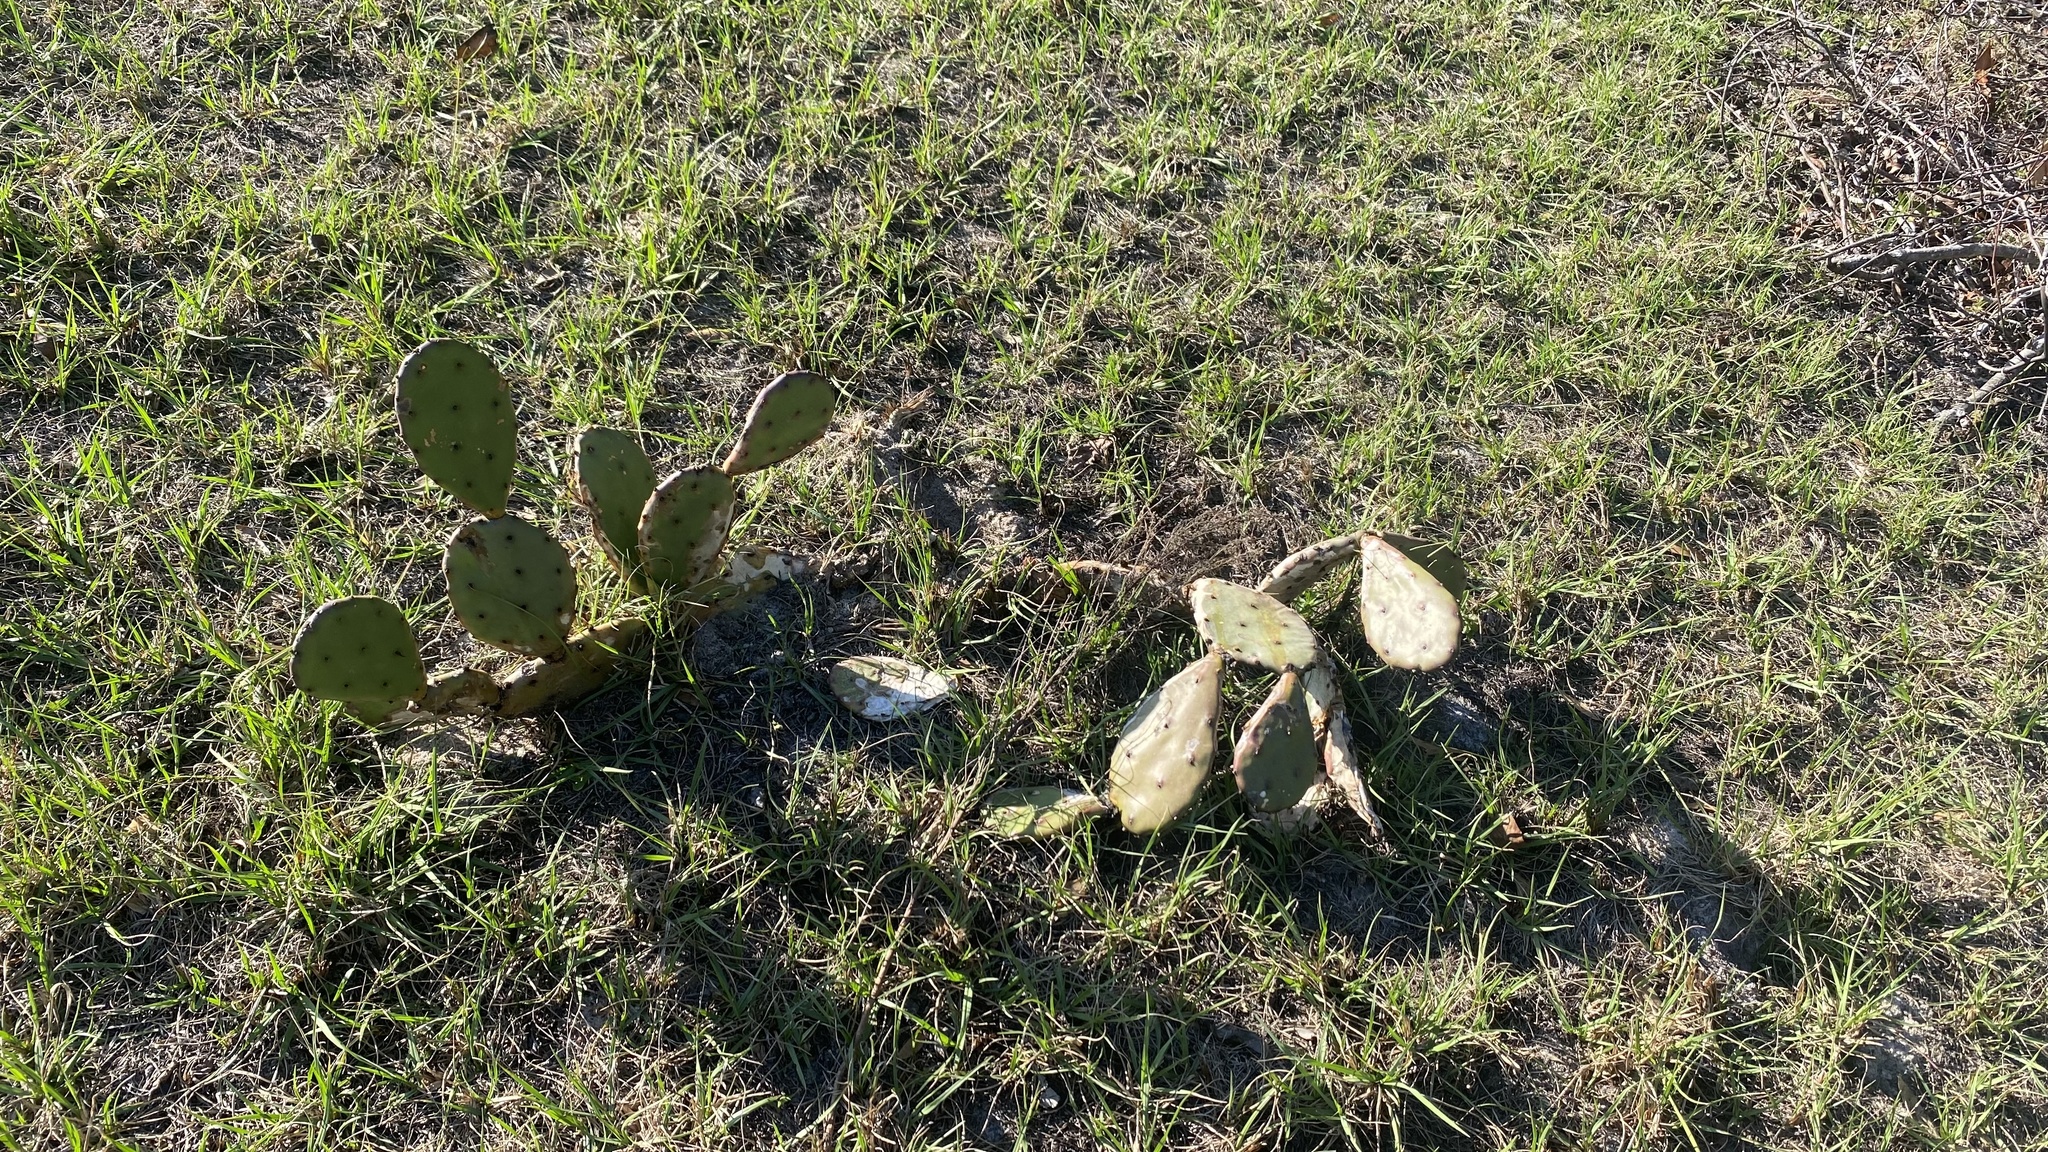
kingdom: Plantae
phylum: Tracheophyta
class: Magnoliopsida
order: Caryophyllales
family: Cactaceae
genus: Opuntia
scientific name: Opuntia austrina
